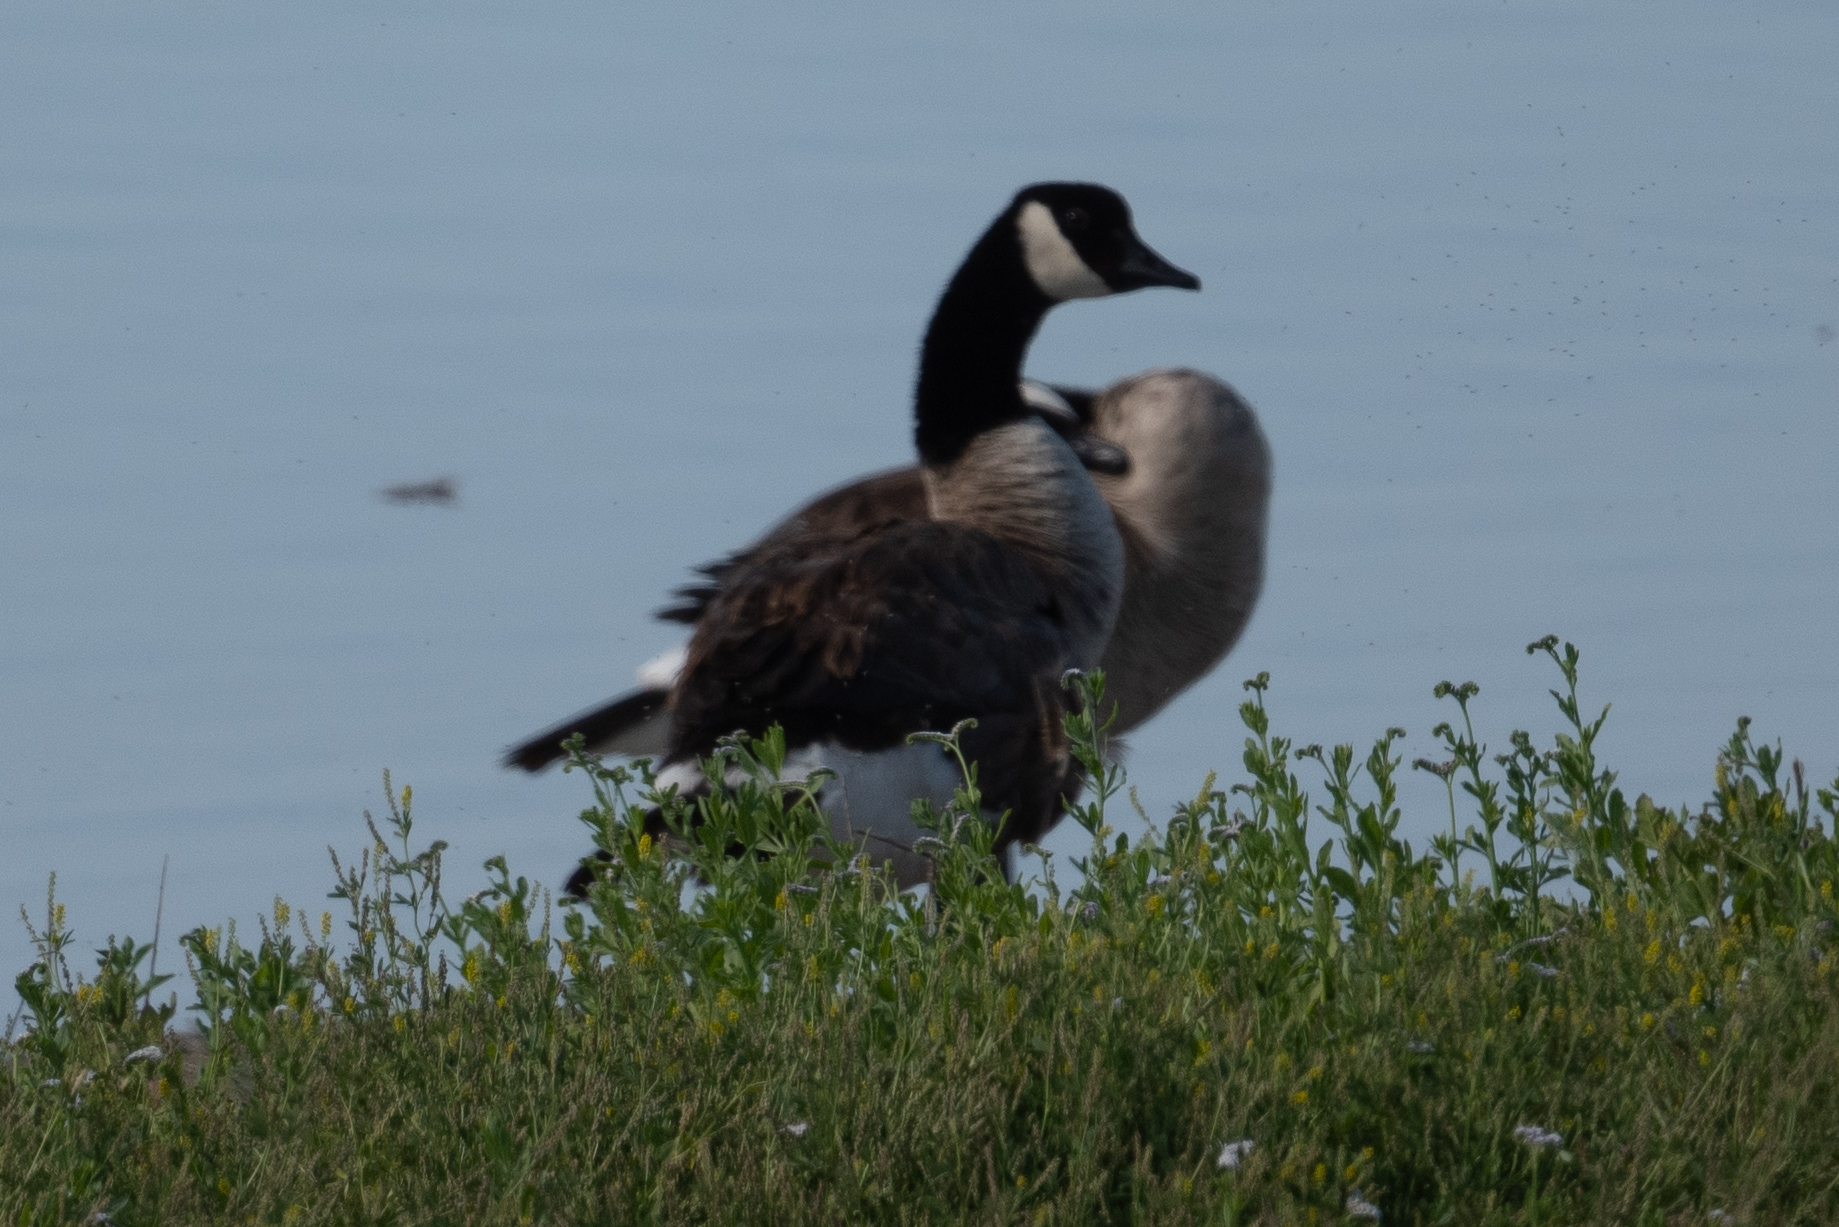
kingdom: Animalia
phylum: Chordata
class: Aves
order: Anseriformes
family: Anatidae
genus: Branta
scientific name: Branta canadensis
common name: Canada goose
